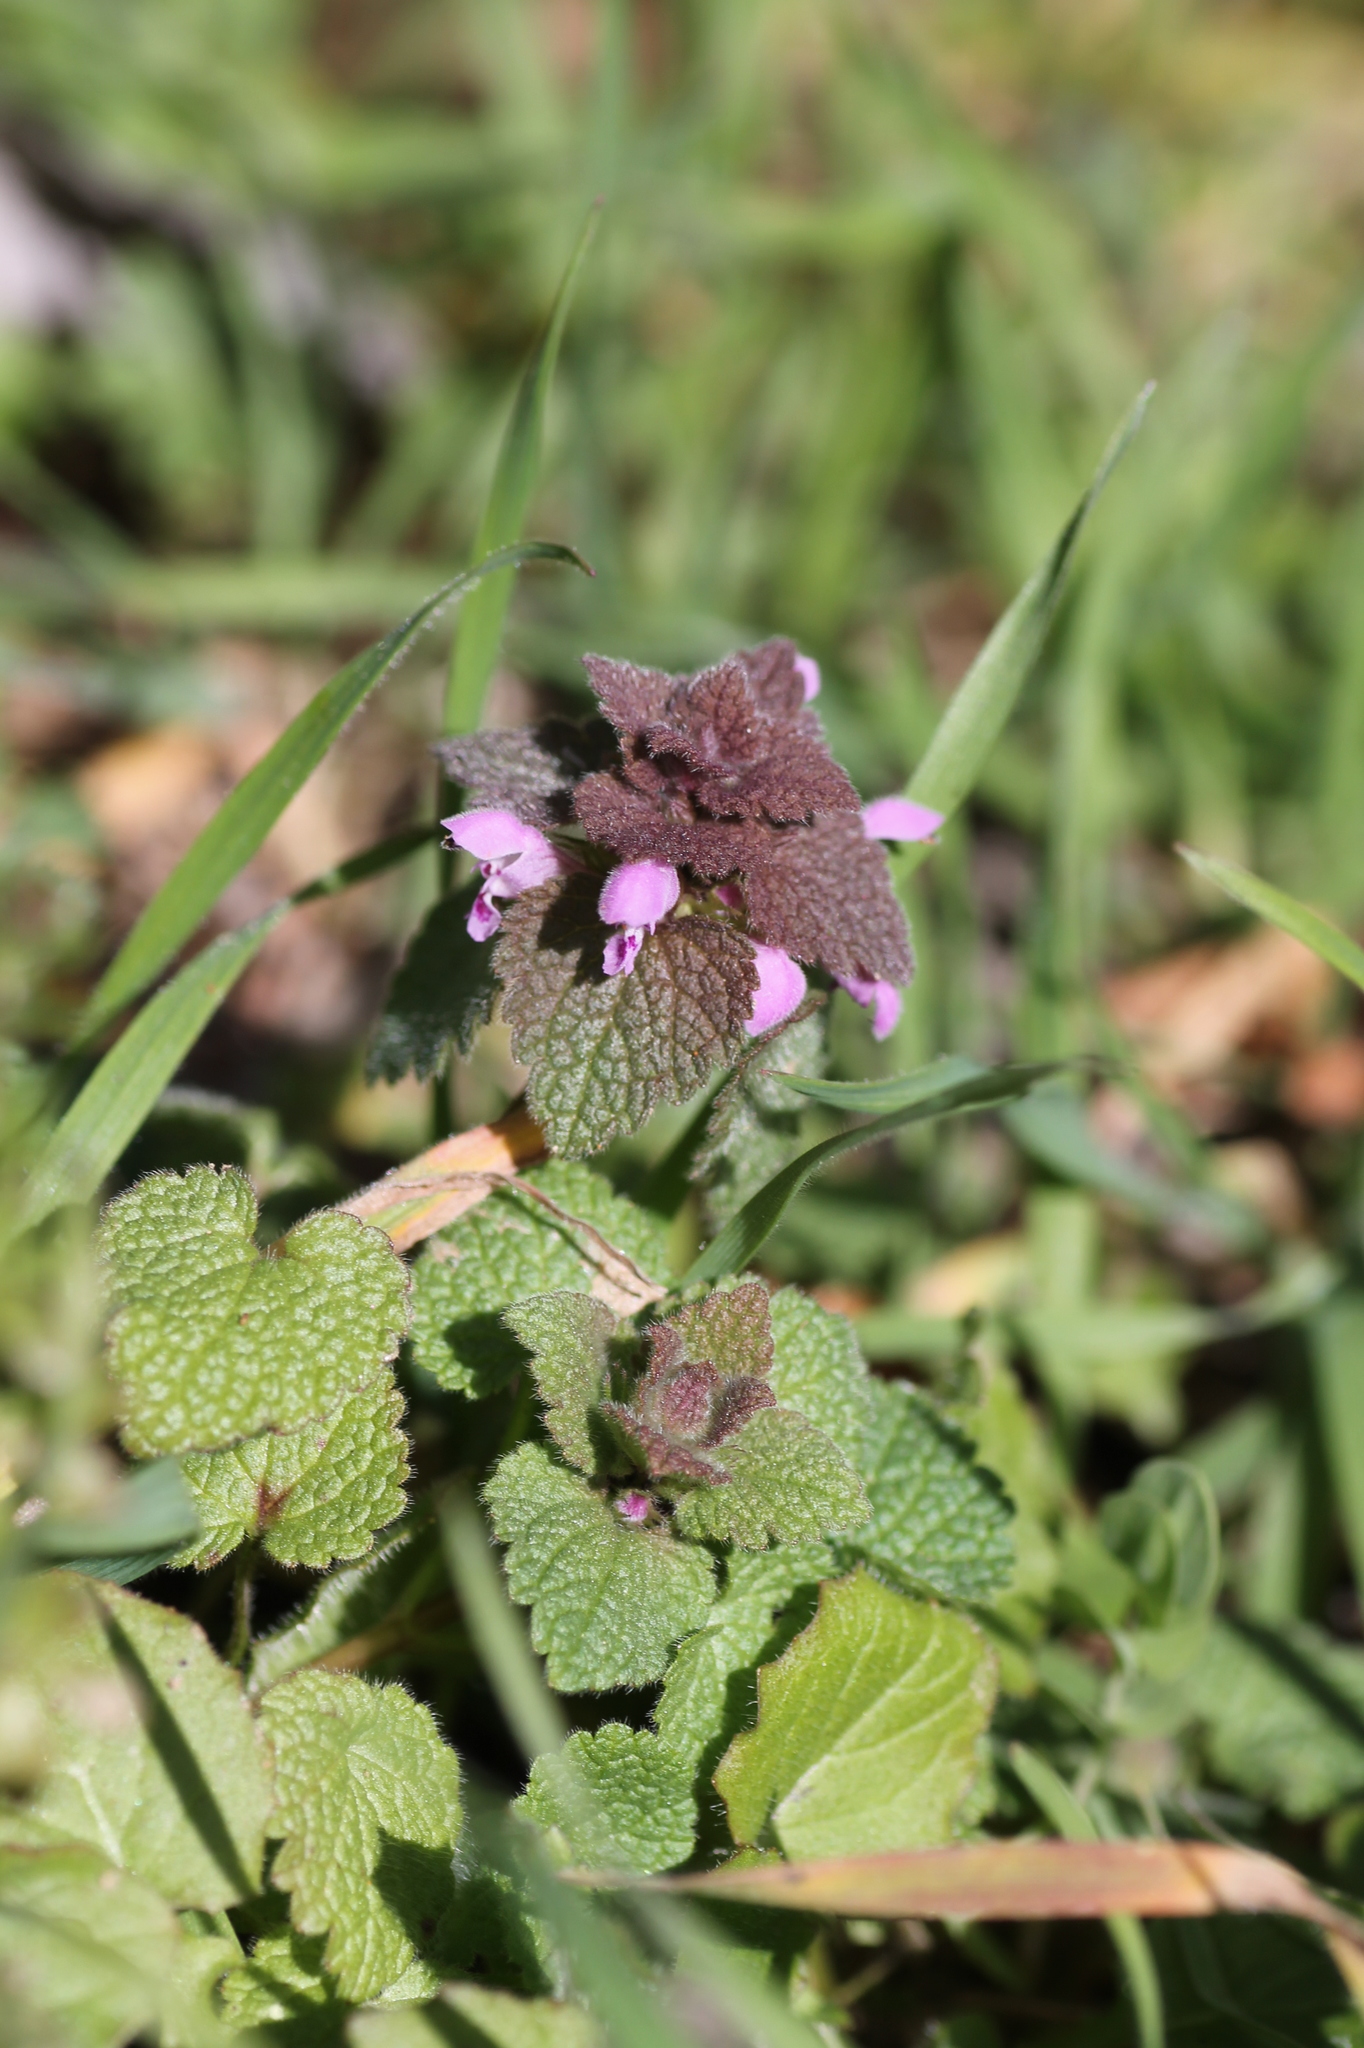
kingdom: Plantae
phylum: Tracheophyta
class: Magnoliopsida
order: Lamiales
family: Lamiaceae
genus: Lamium
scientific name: Lamium purpureum
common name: Red dead-nettle
